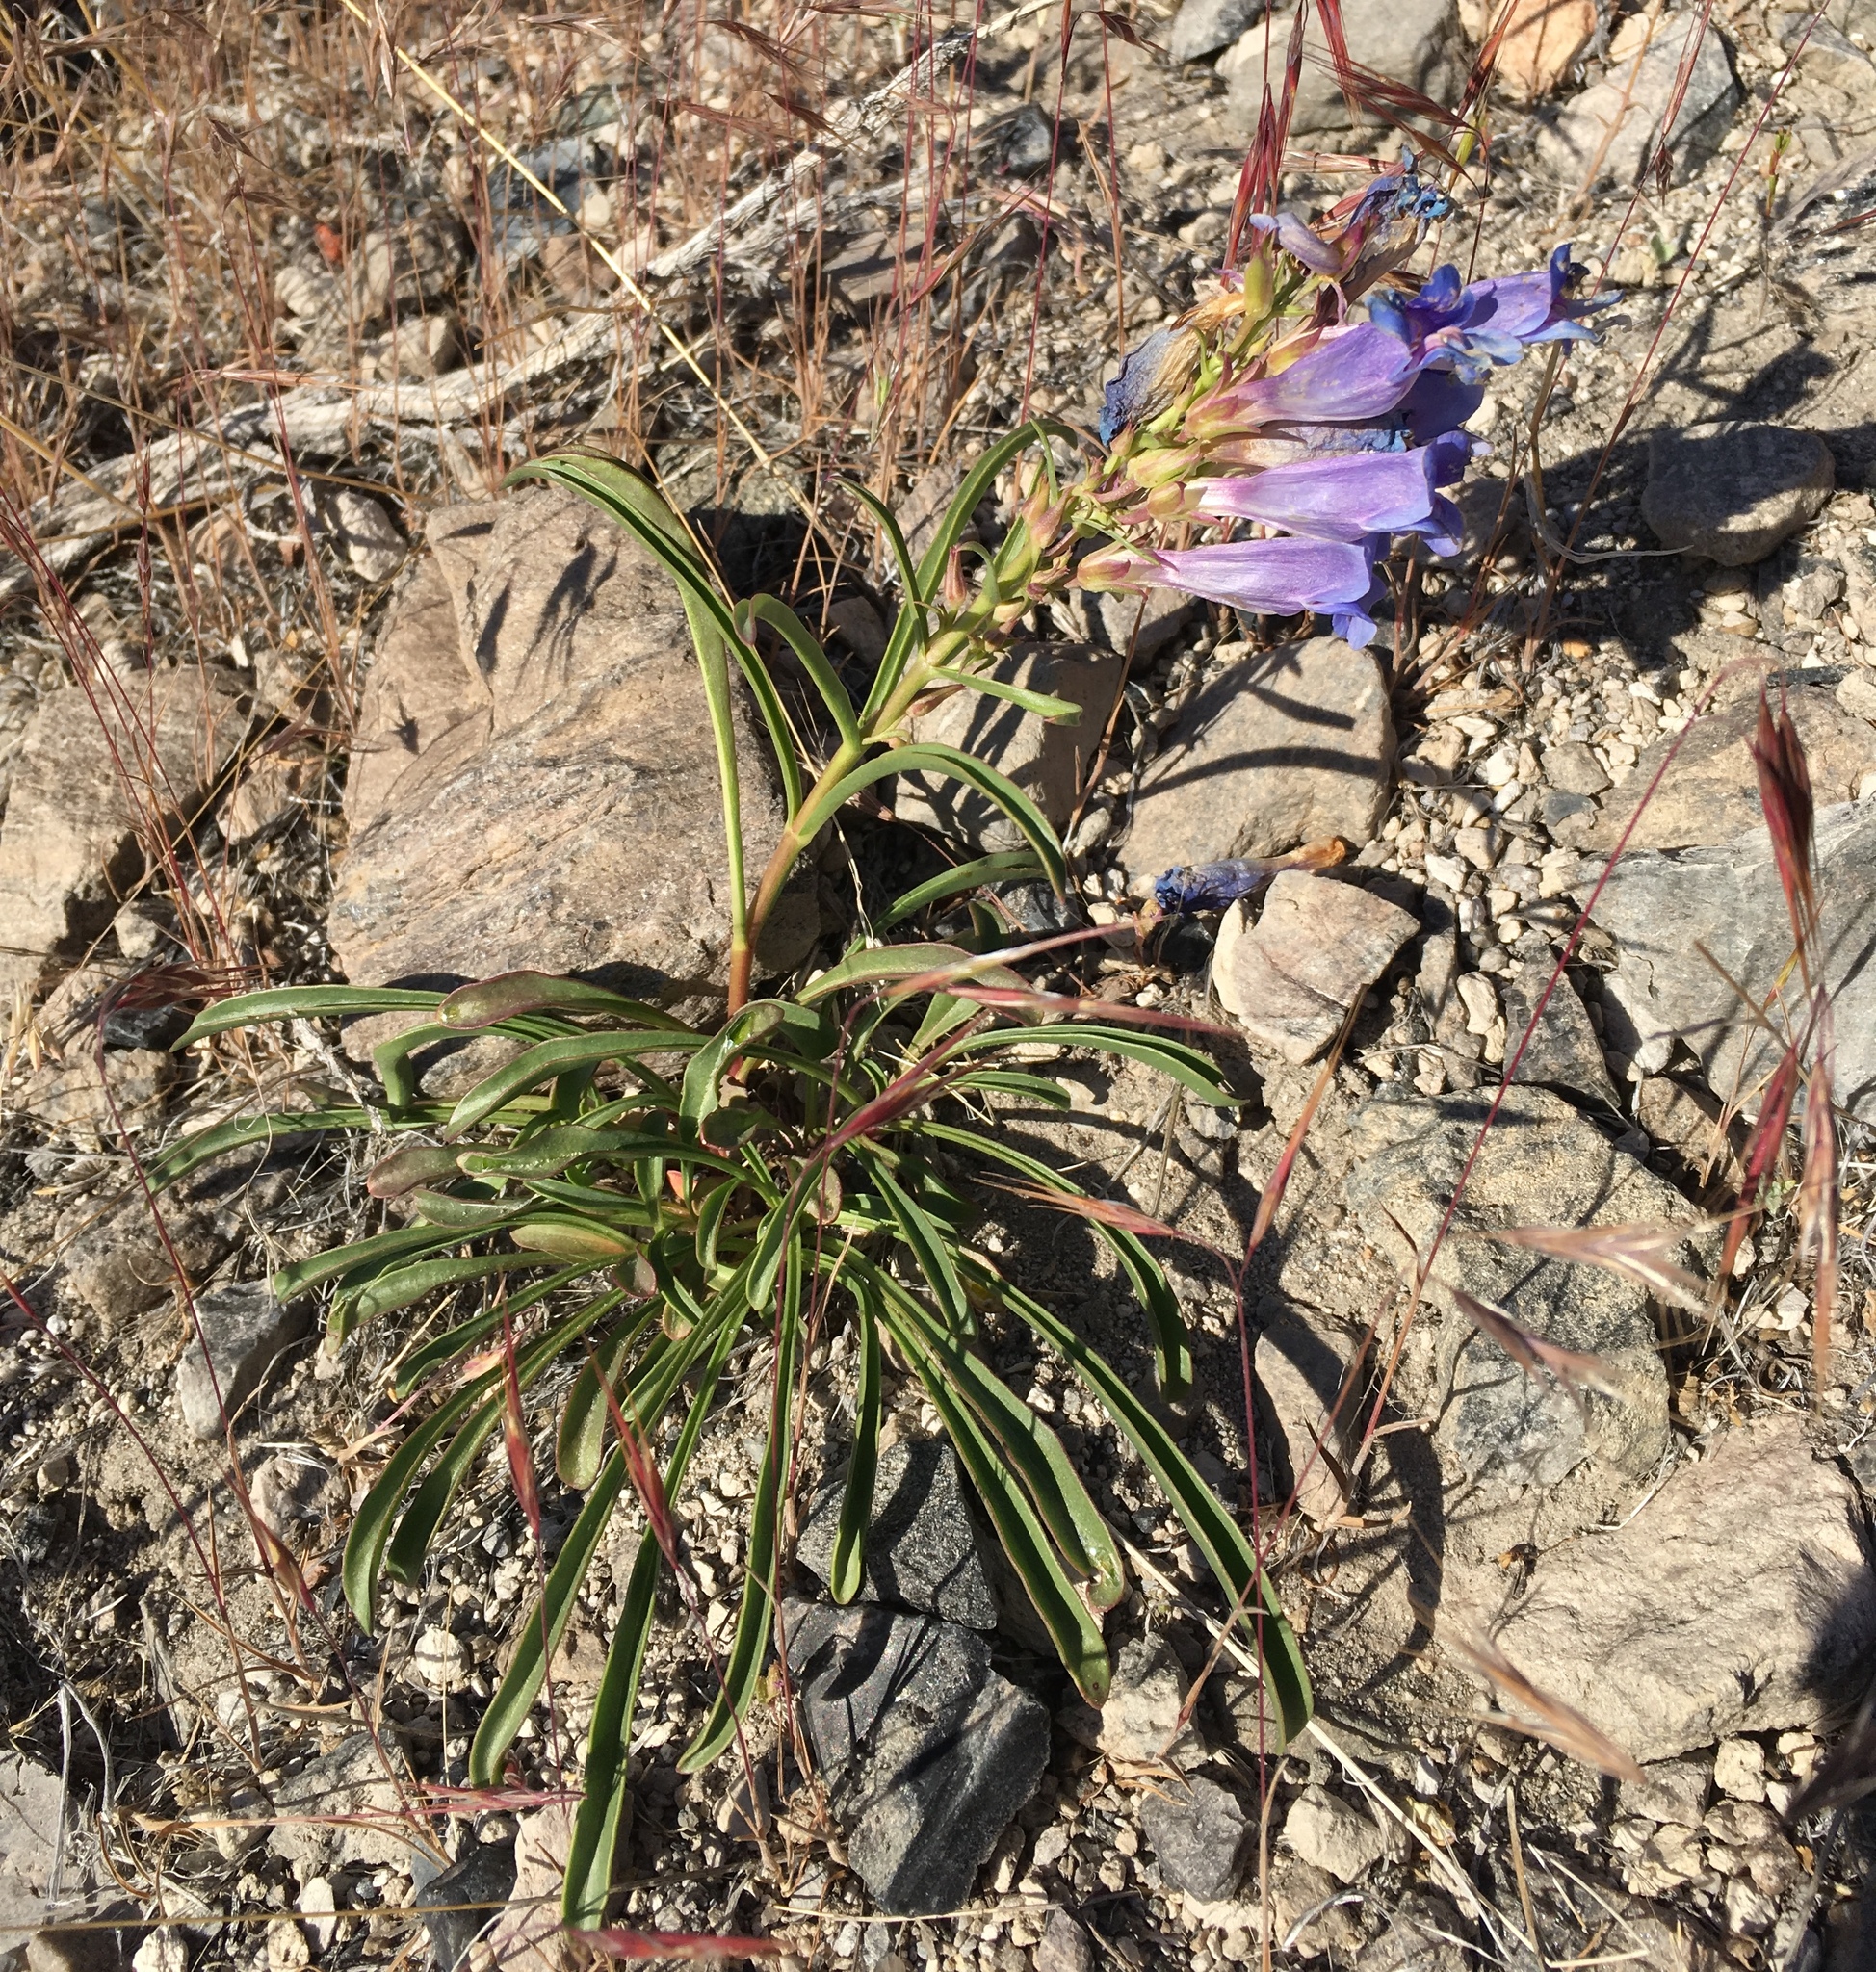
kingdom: Plantae
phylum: Tracheophyta
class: Magnoliopsida
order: Lamiales
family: Plantaginaceae
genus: Penstemon
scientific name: Penstemon speciosus
